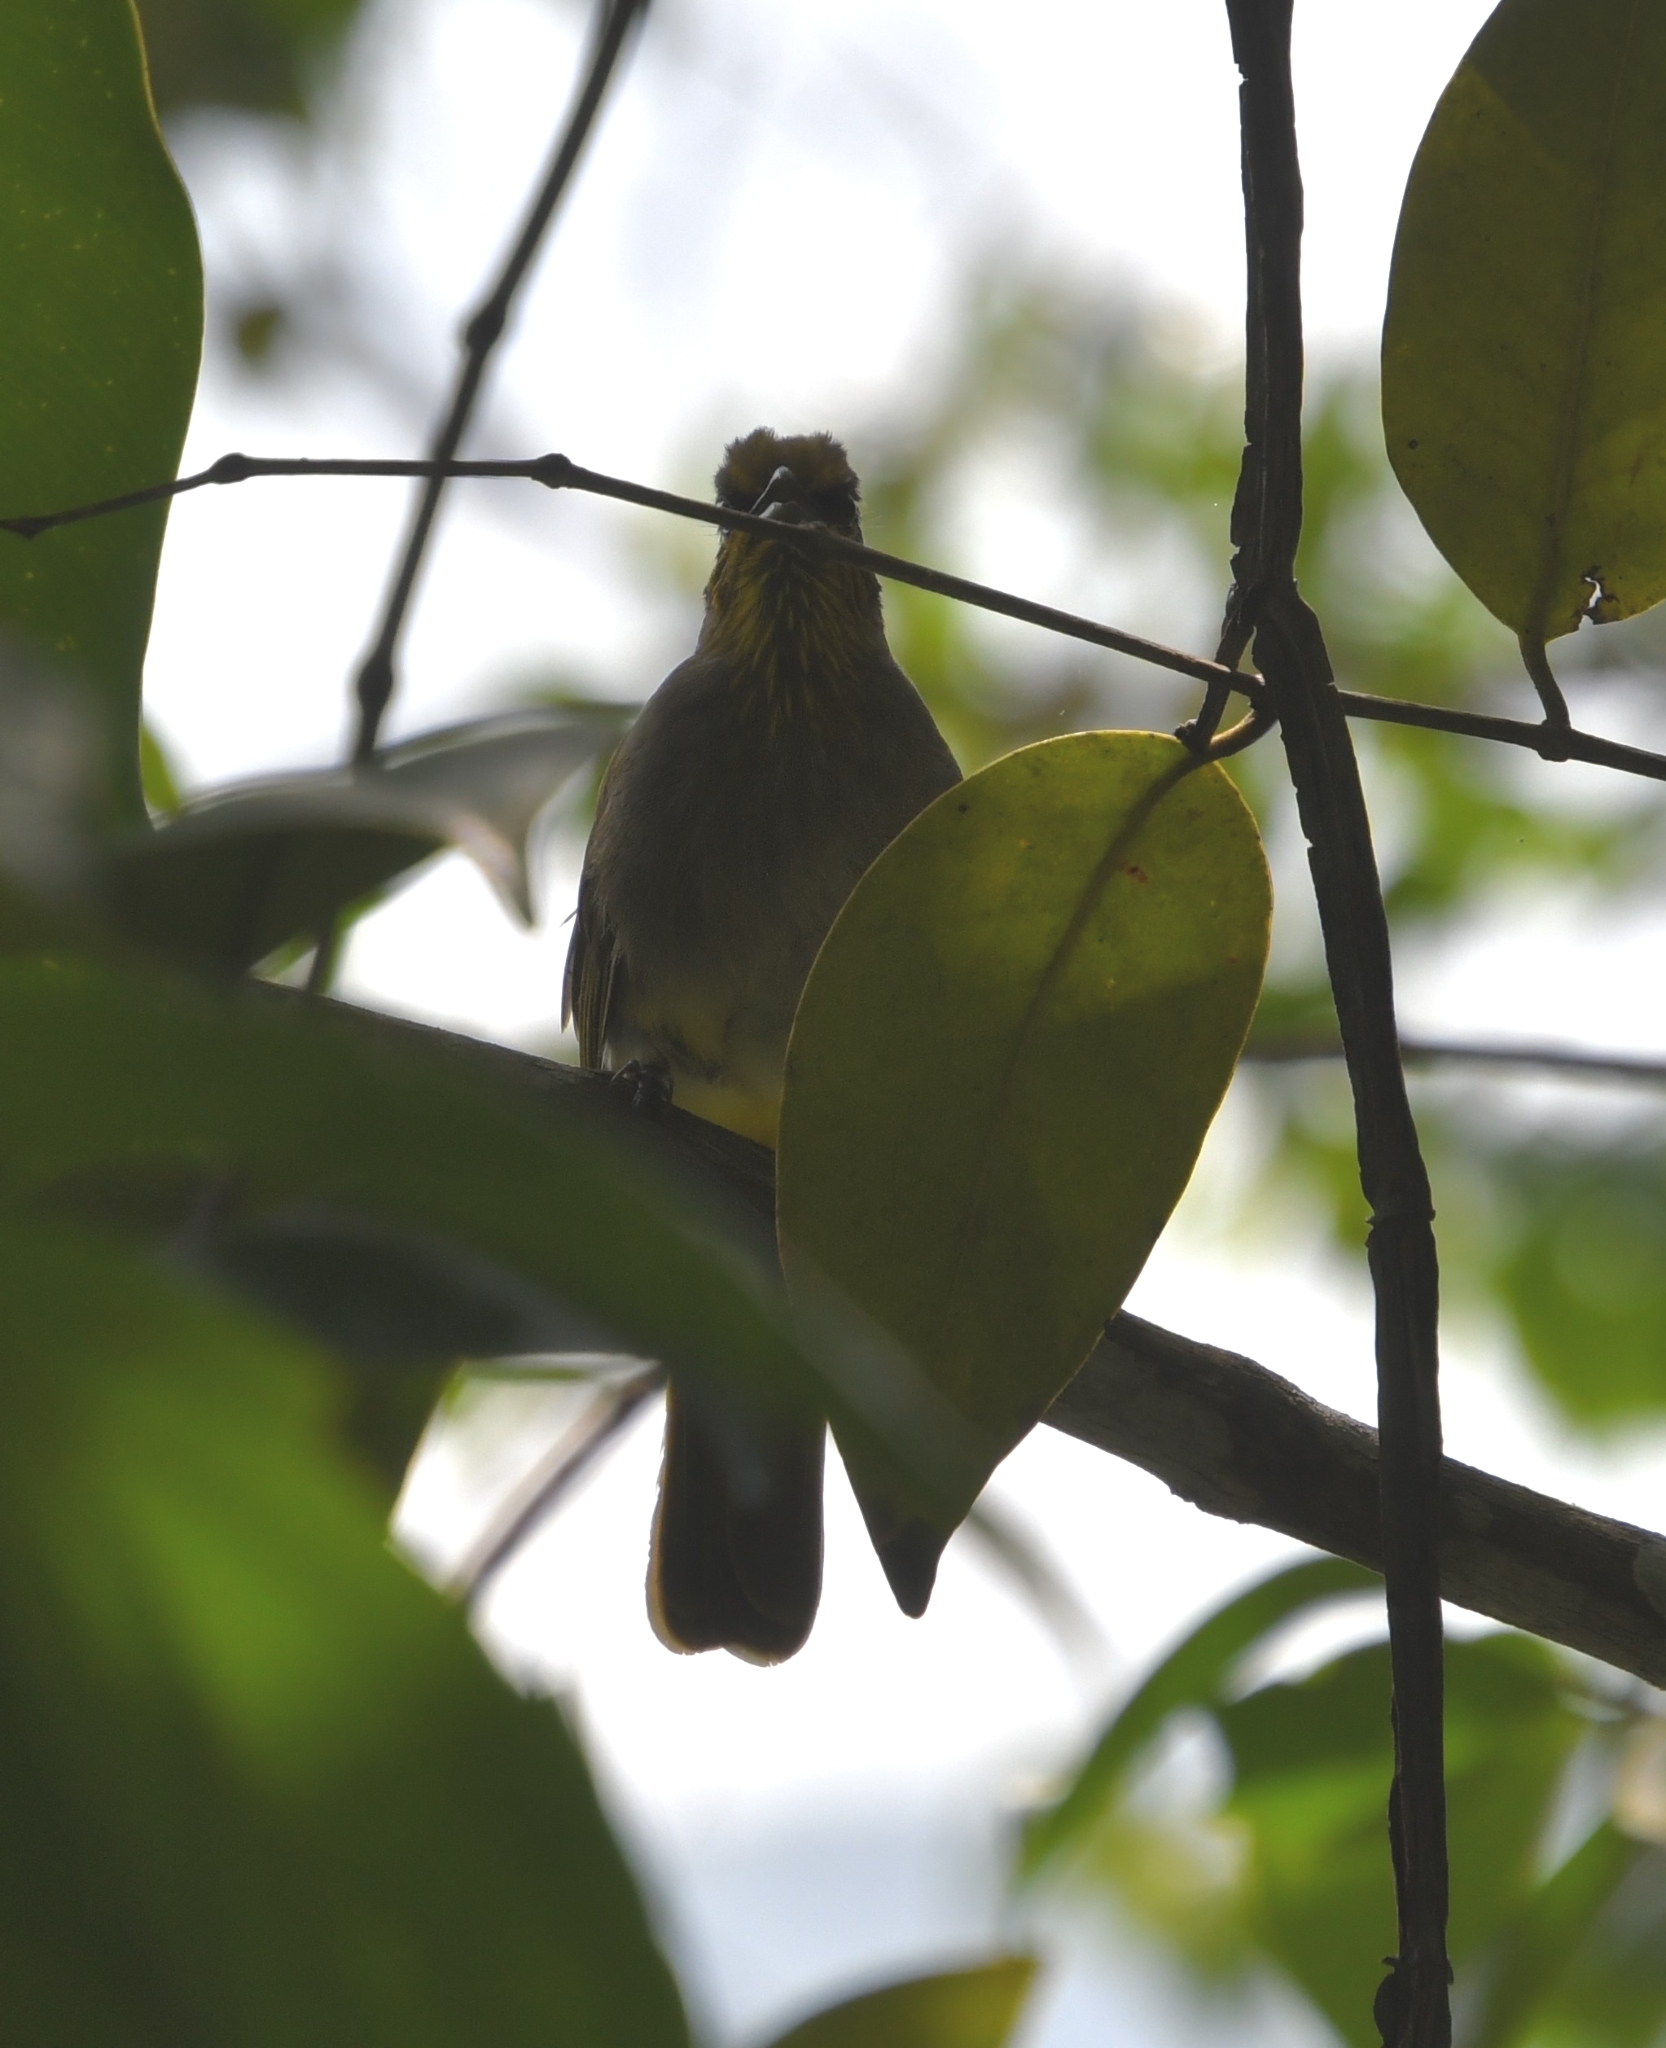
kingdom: Animalia
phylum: Chordata
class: Aves
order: Passeriformes
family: Pycnonotidae
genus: Pycnonotus
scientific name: Pycnonotus finlaysoni
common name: Stripe-throated bulbul
